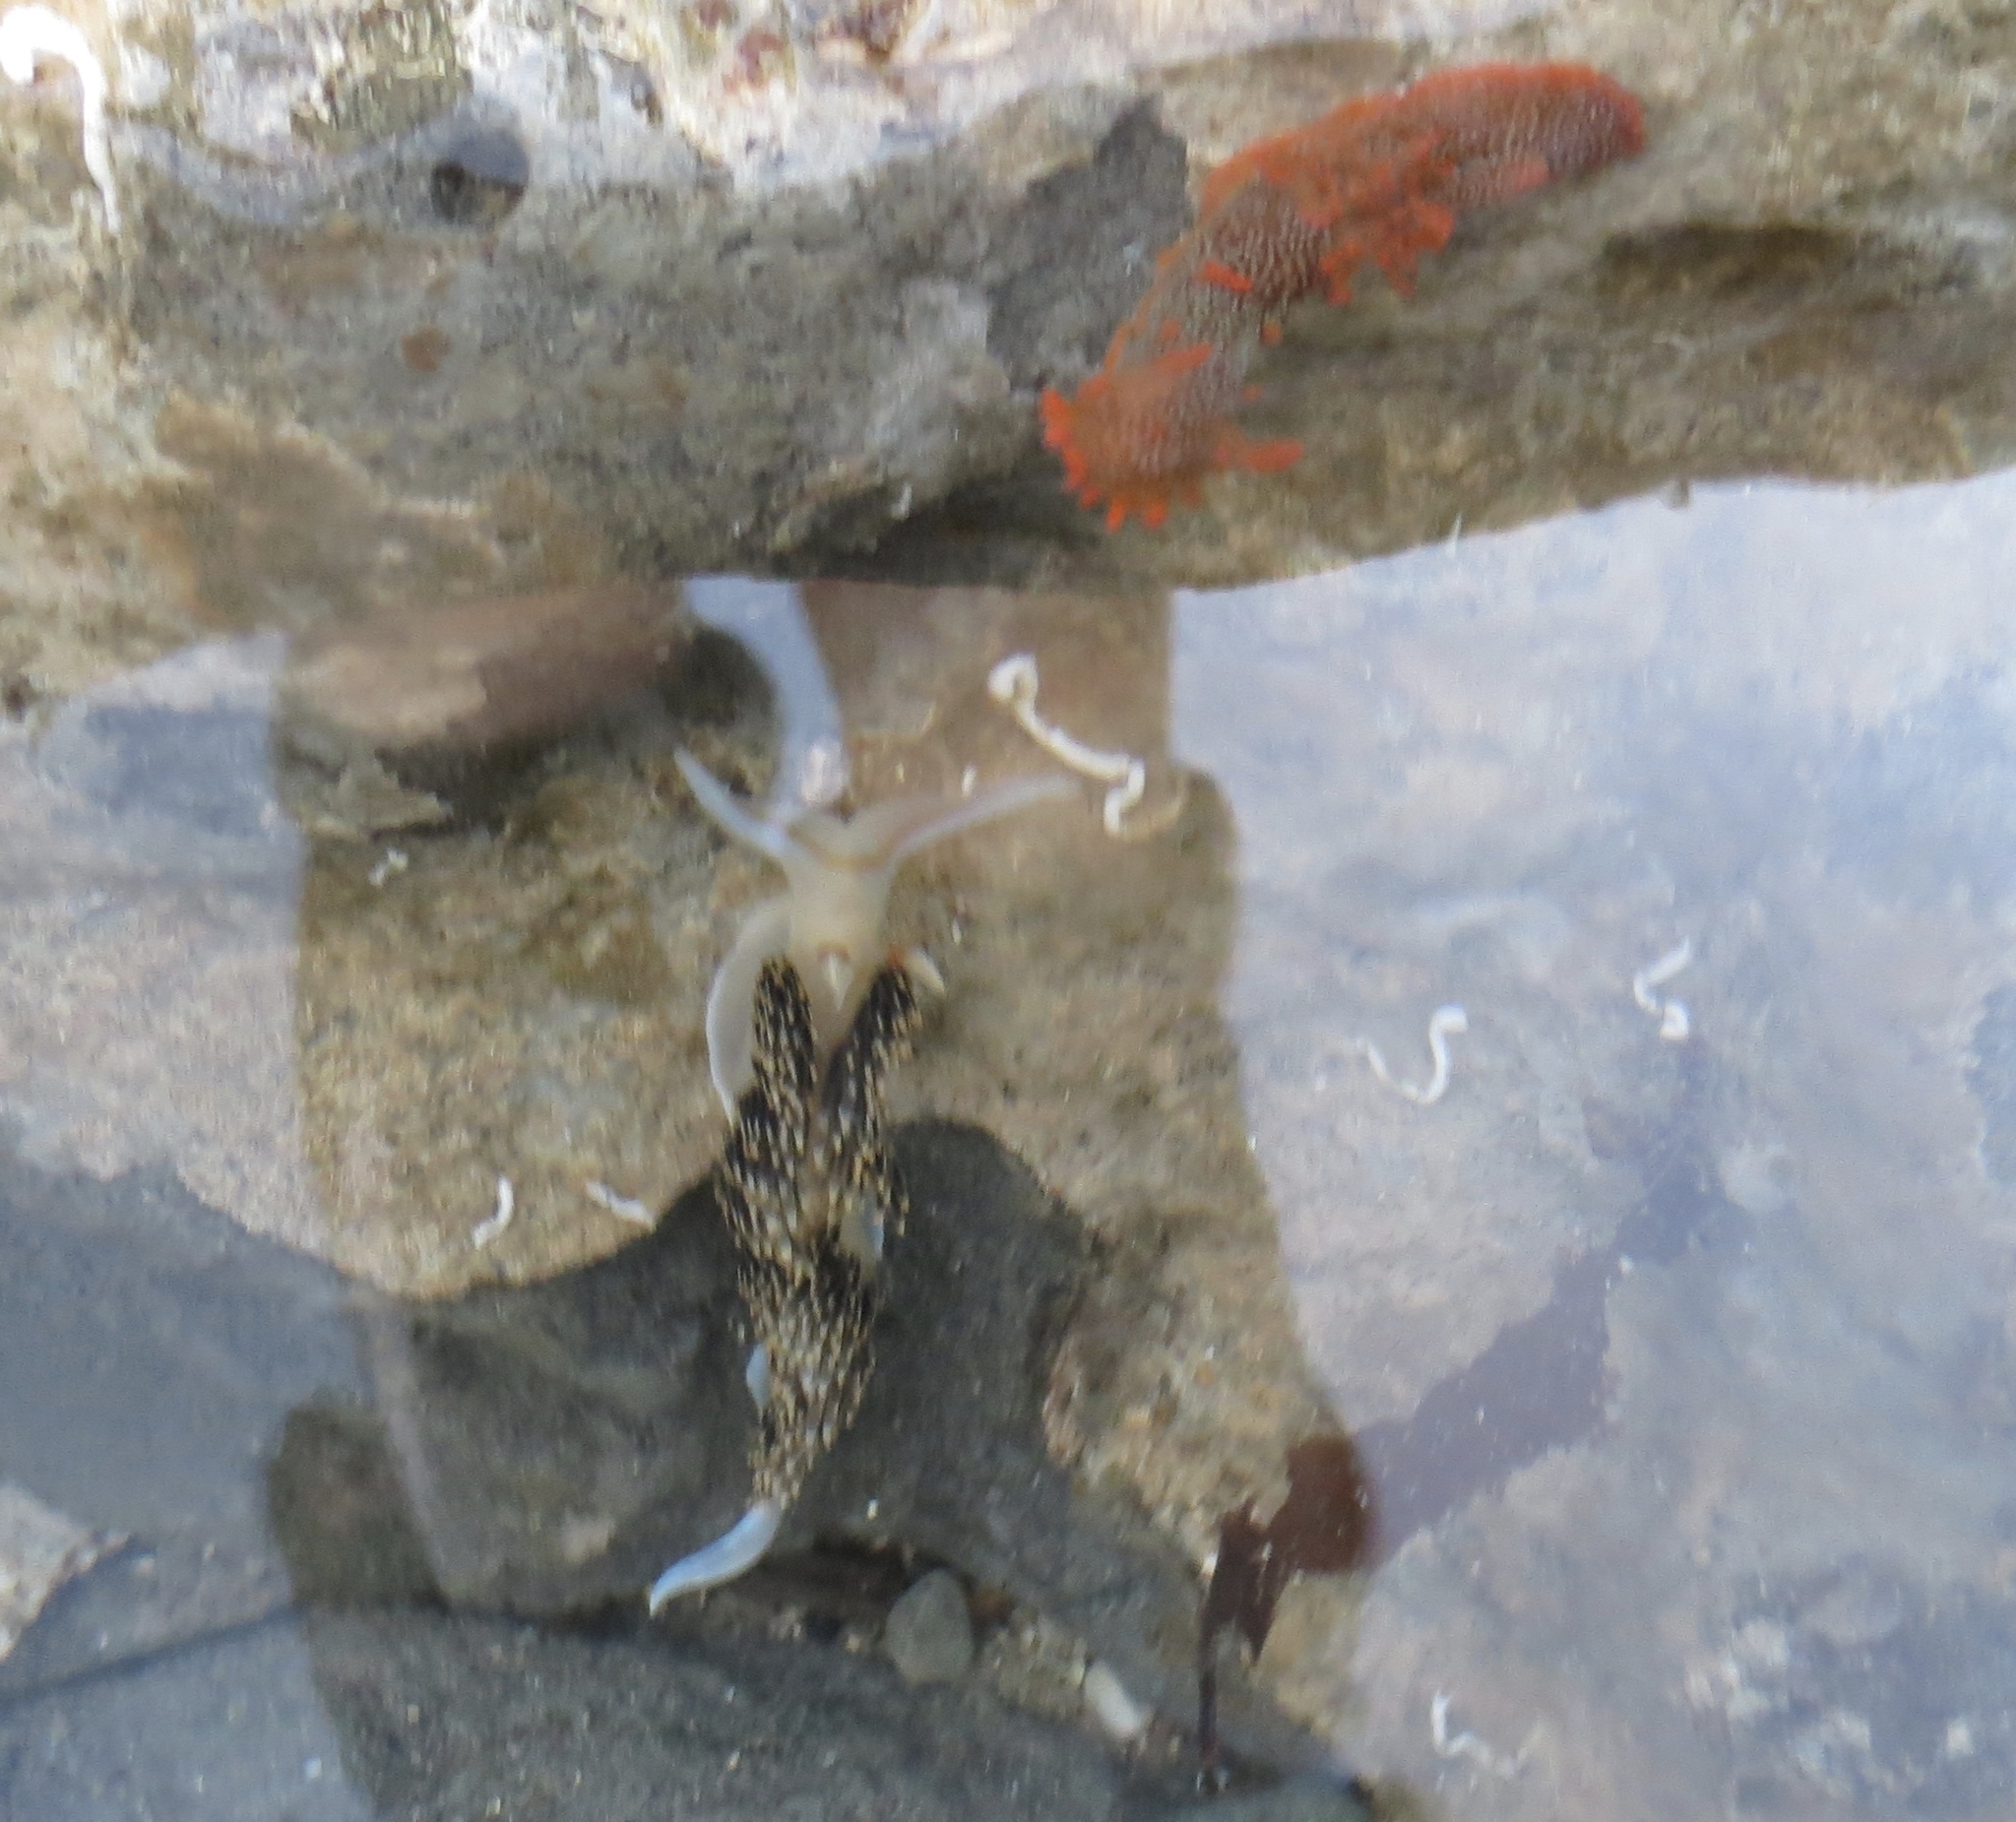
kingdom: Animalia
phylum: Mollusca
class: Gastropoda
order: Nudibranchia
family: Facelinidae
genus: Phidiana
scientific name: Phidiana hiltoni
